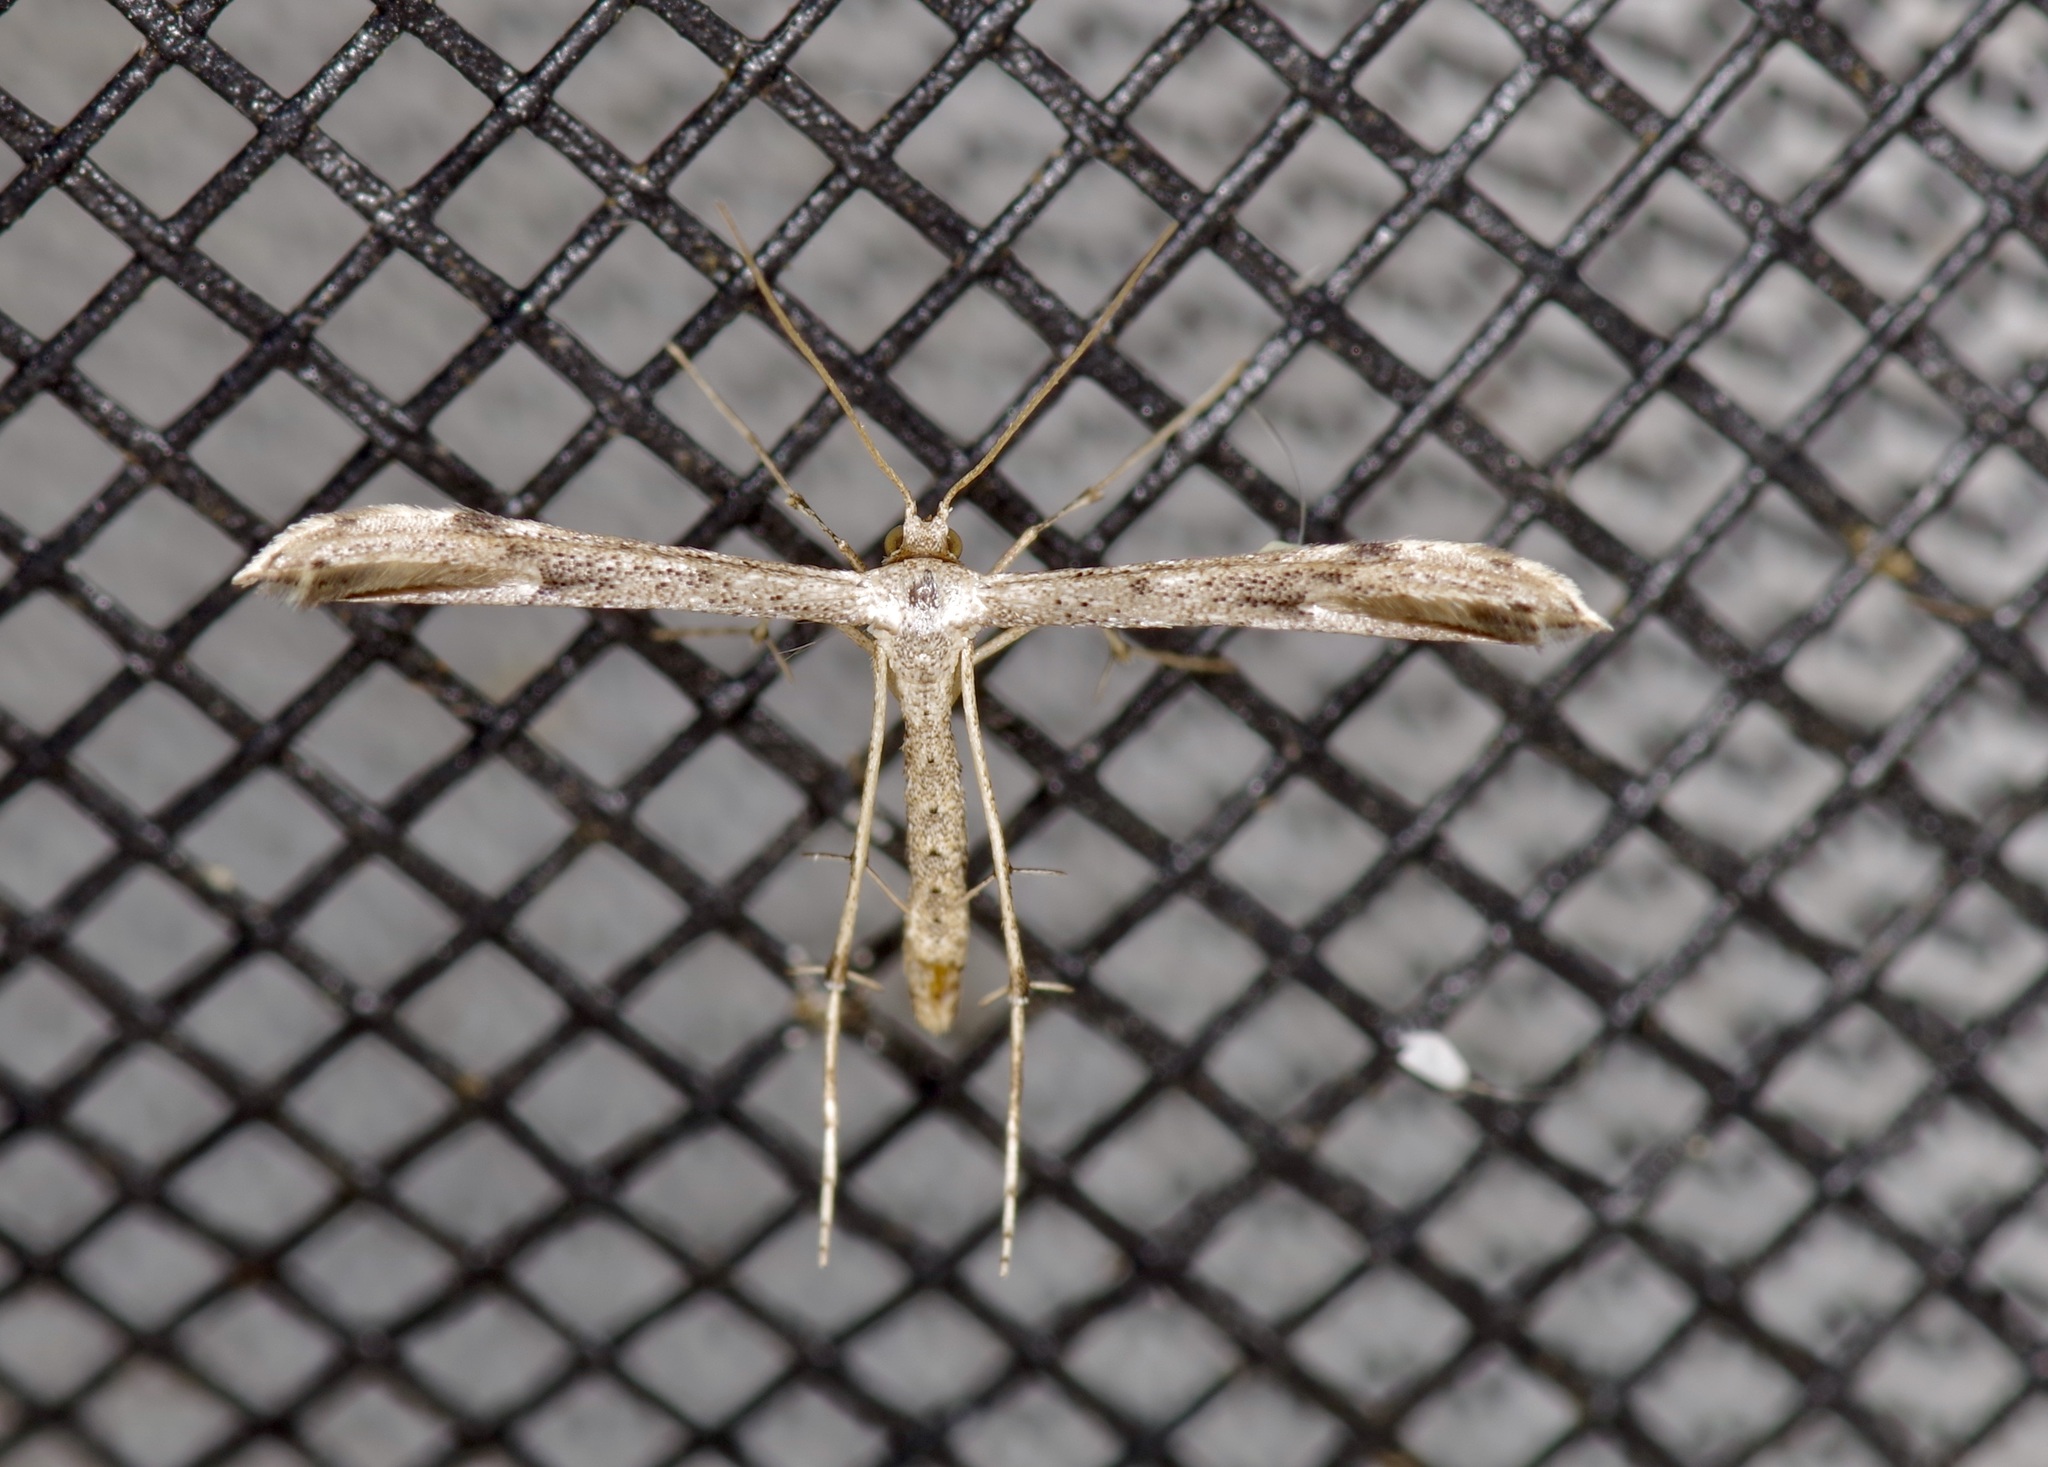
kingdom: Animalia
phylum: Arthropoda
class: Insecta
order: Lepidoptera
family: Pterophoridae
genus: Adaina
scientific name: Adaina ambrosiae
